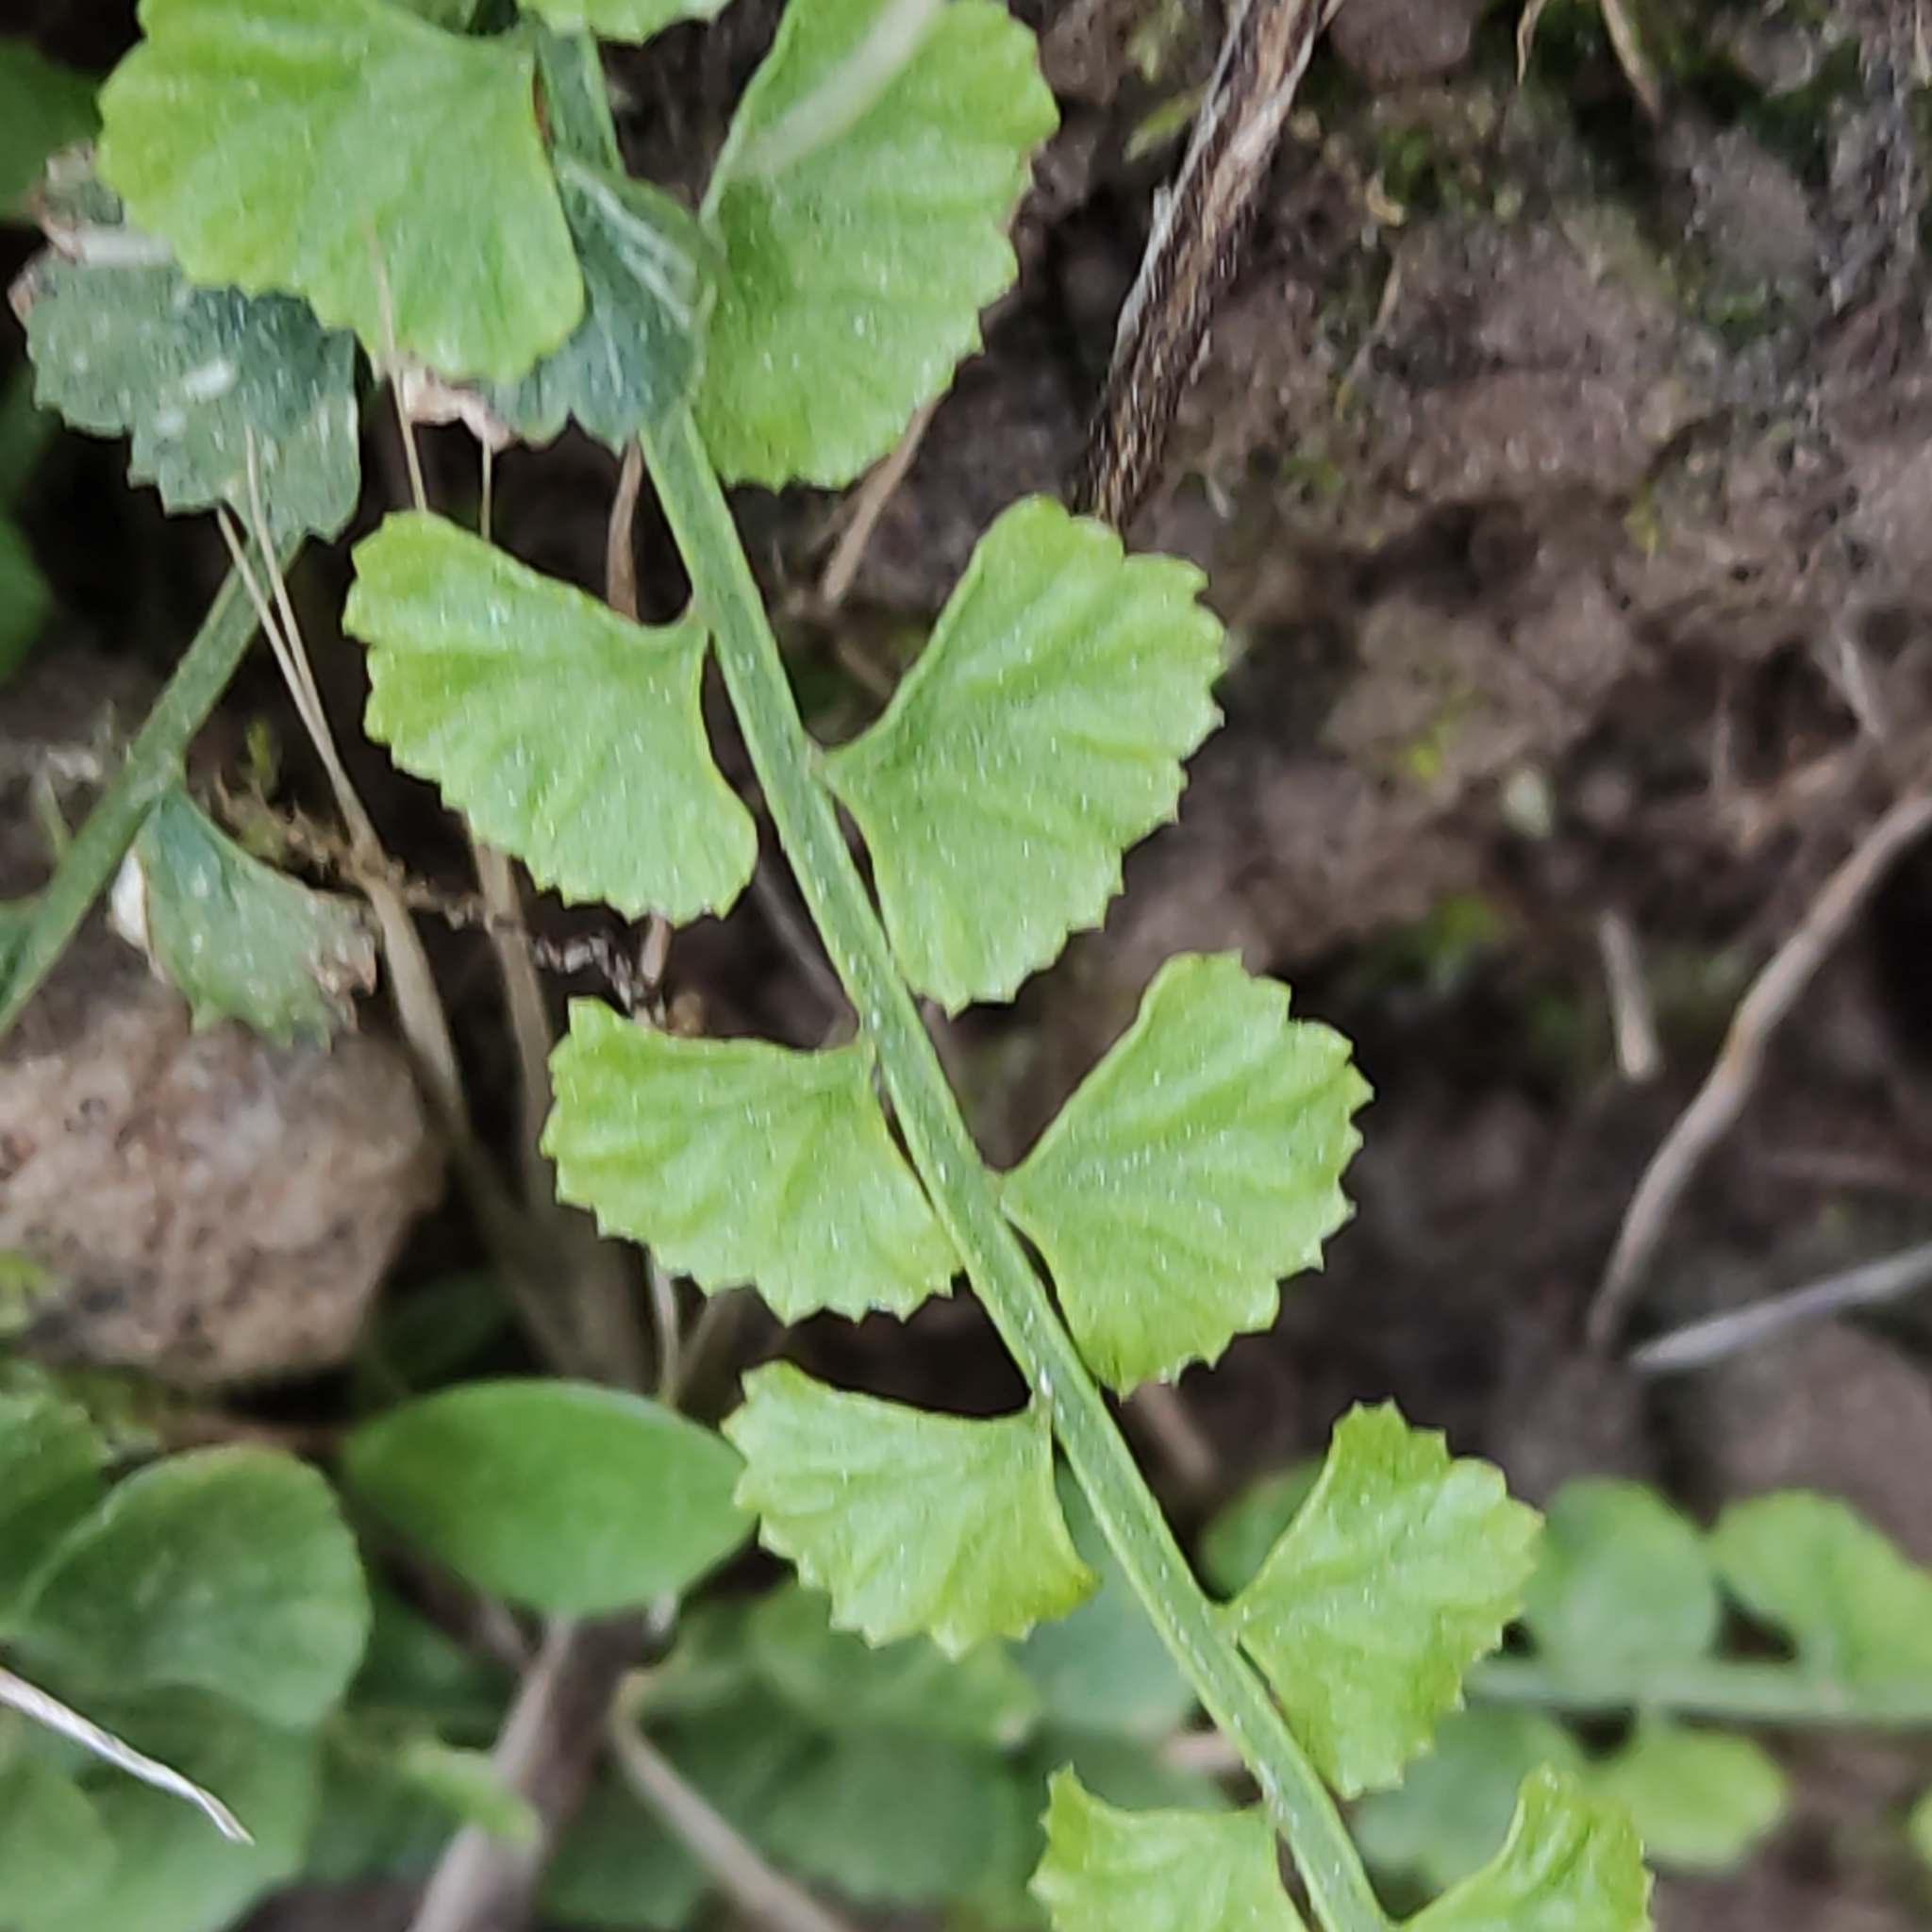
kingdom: Plantae
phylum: Tracheophyta
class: Polypodiopsida
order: Polypodiales
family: Aspleniaceae
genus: Asplenium
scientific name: Asplenium flabellifolium
